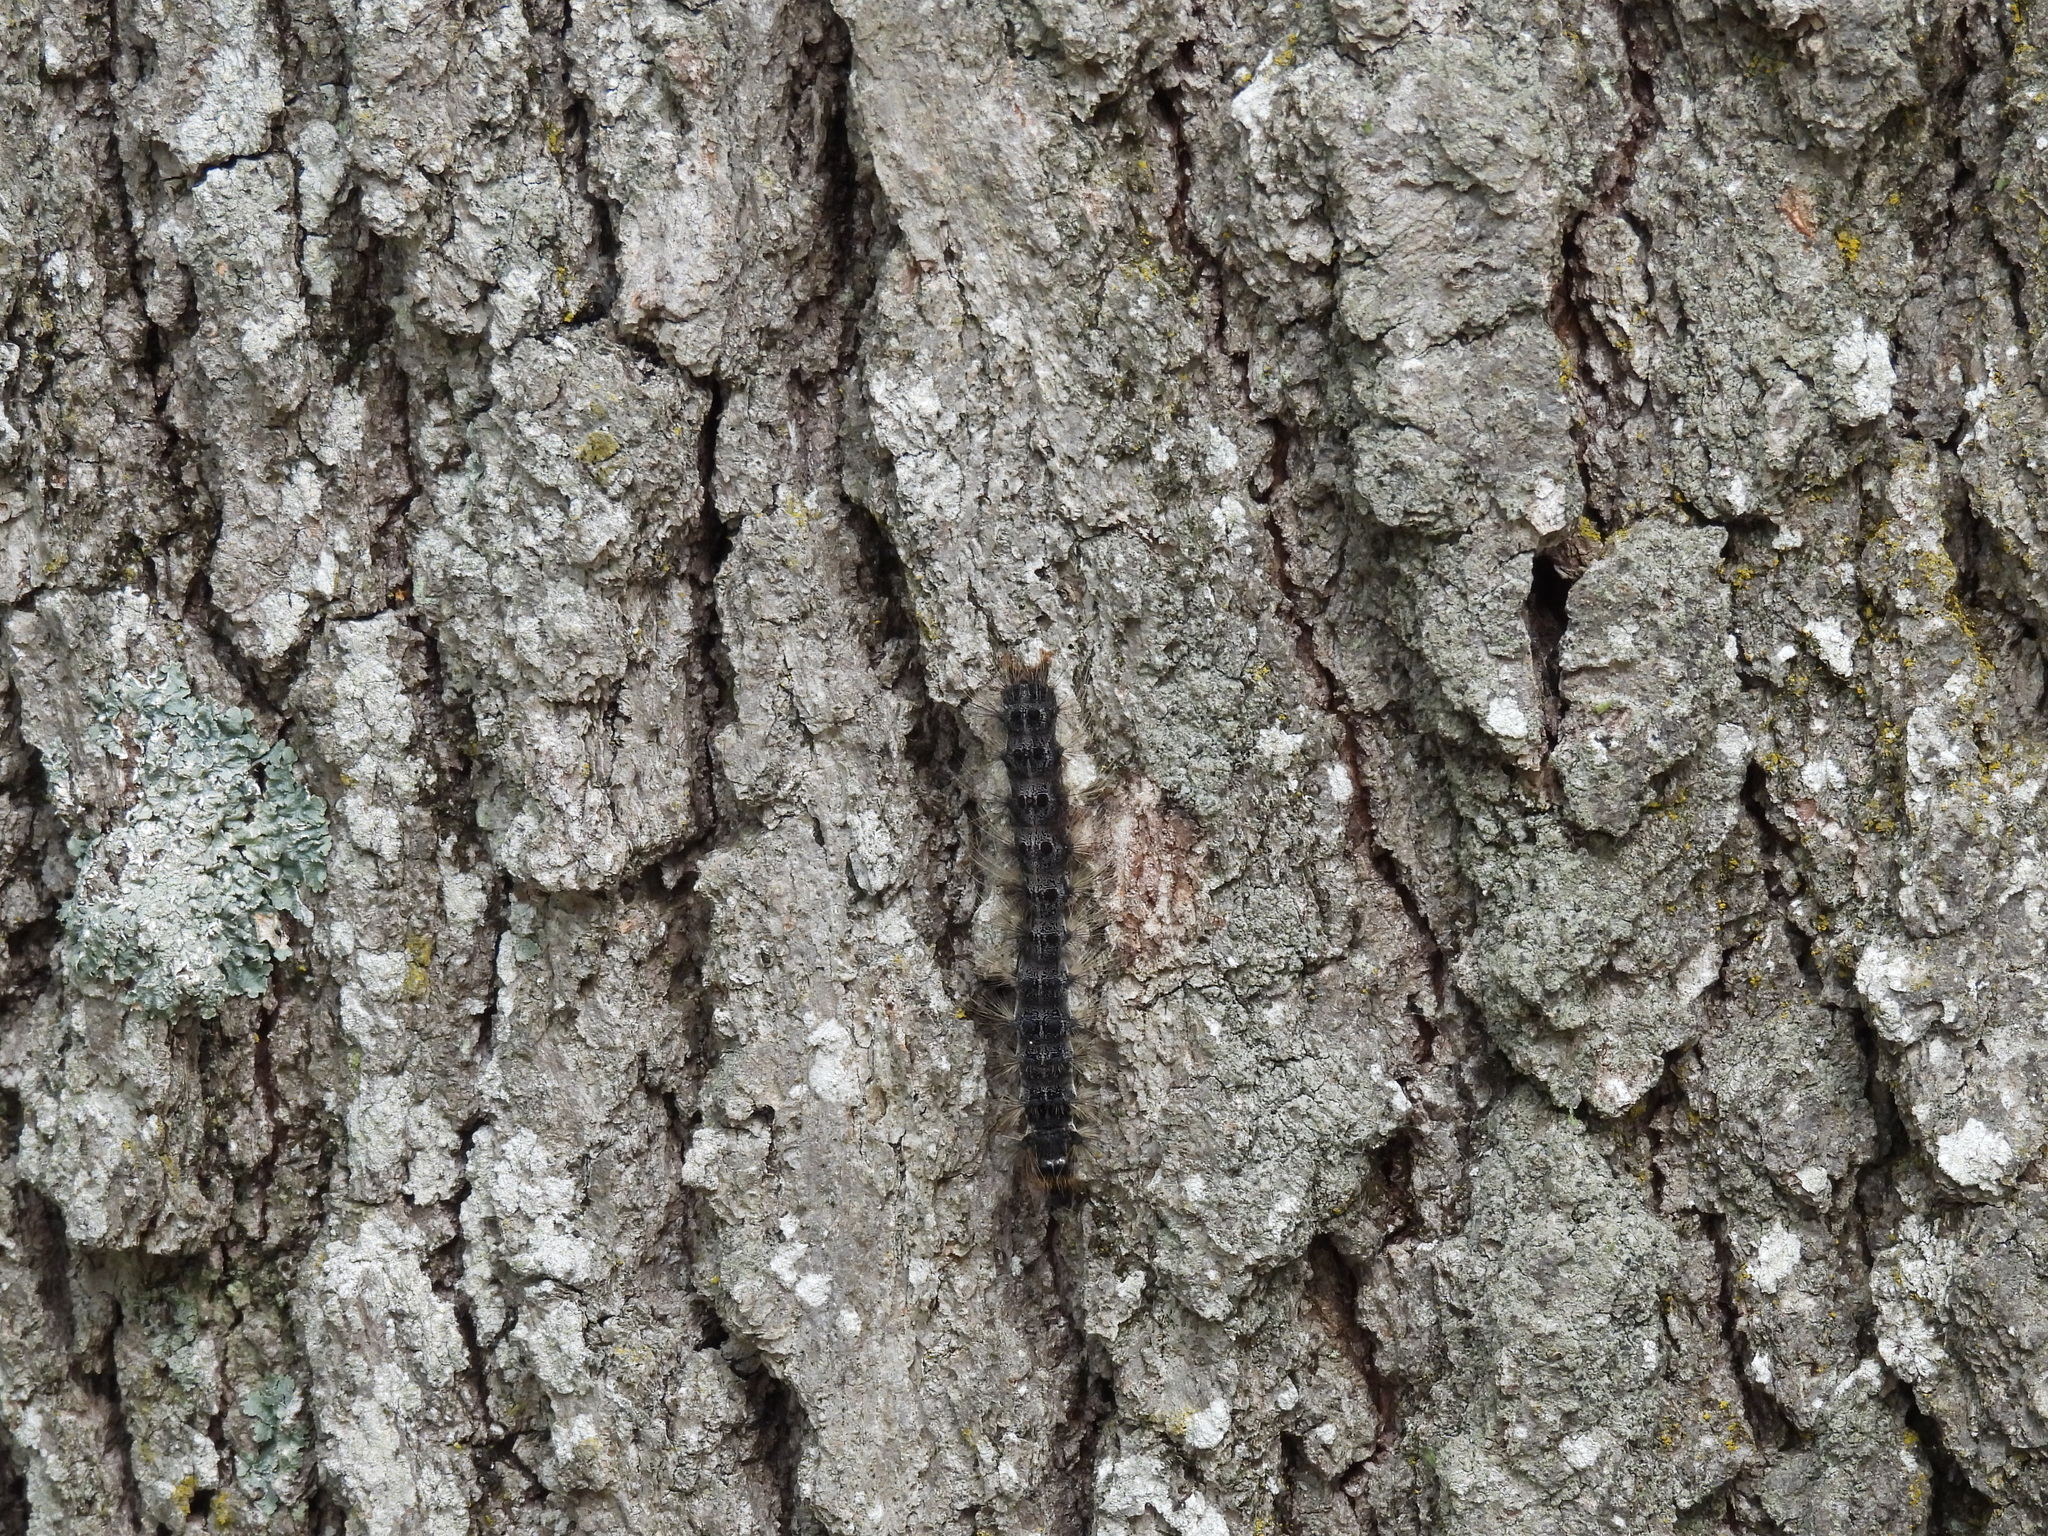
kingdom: Animalia
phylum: Arthropoda
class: Insecta
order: Lepidoptera
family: Erebidae
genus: Lymantria
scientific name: Lymantria dispar
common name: Gypsy moth
